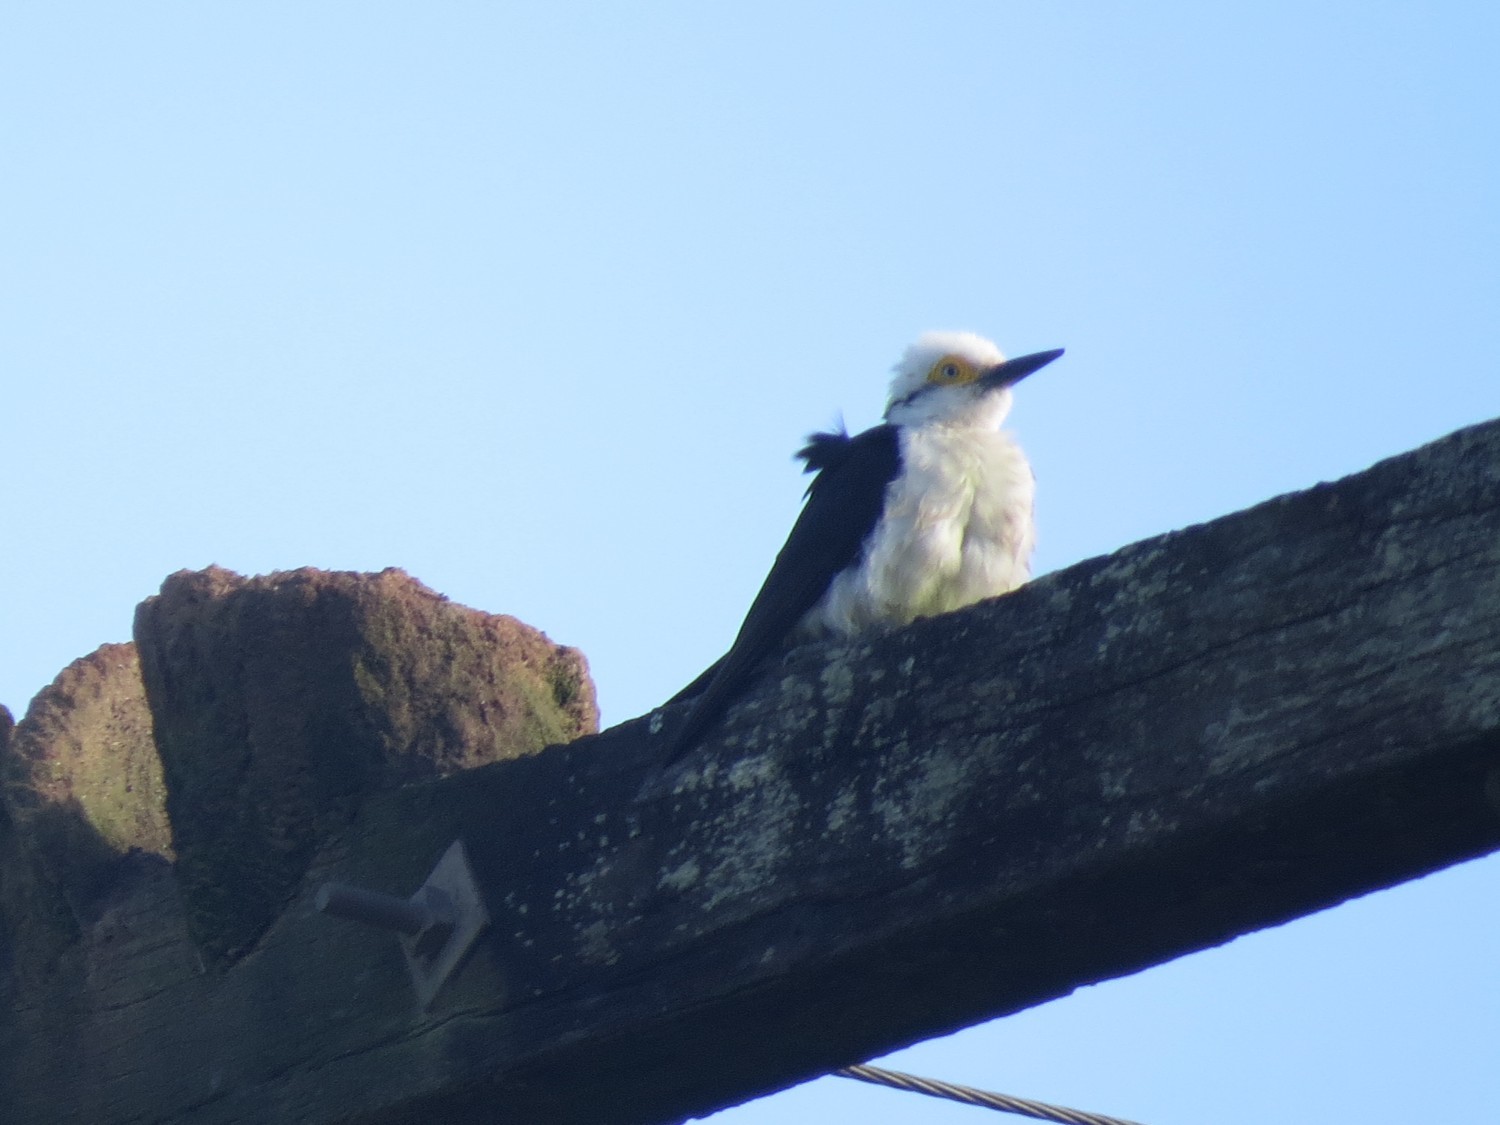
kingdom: Animalia
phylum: Chordata
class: Aves
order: Piciformes
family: Picidae
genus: Melanerpes
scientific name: Melanerpes candidus
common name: White woodpecker
